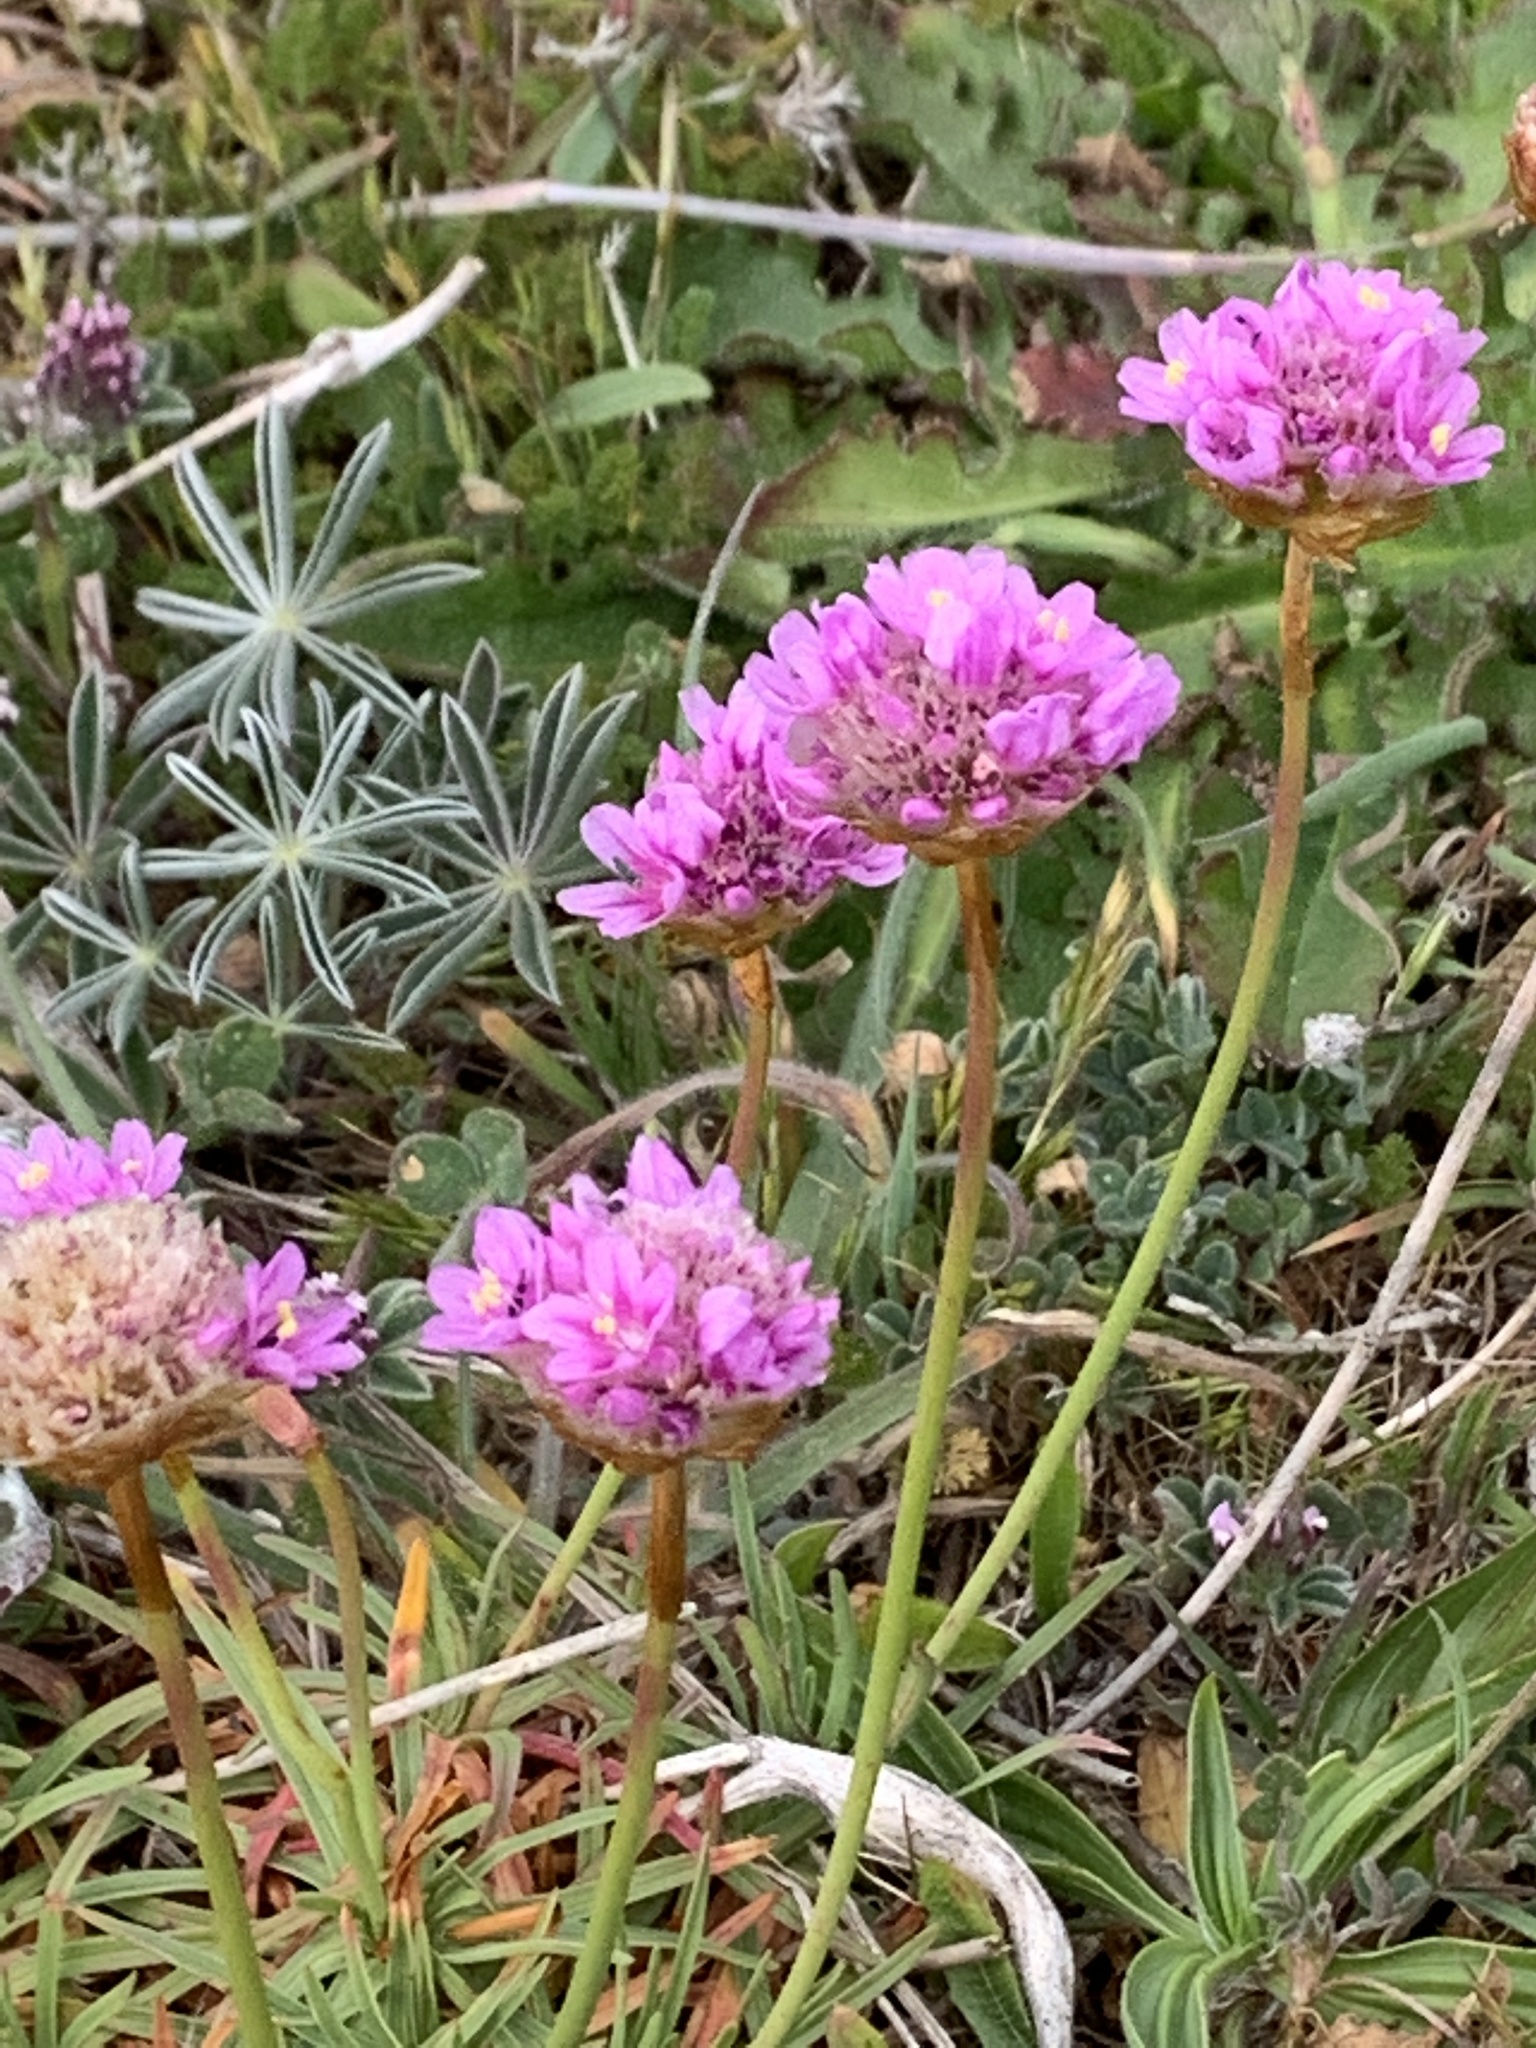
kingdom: Plantae
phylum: Tracheophyta
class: Magnoliopsida
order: Caryophyllales
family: Plumbaginaceae
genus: Armeria
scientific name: Armeria maritima
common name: Thrift
